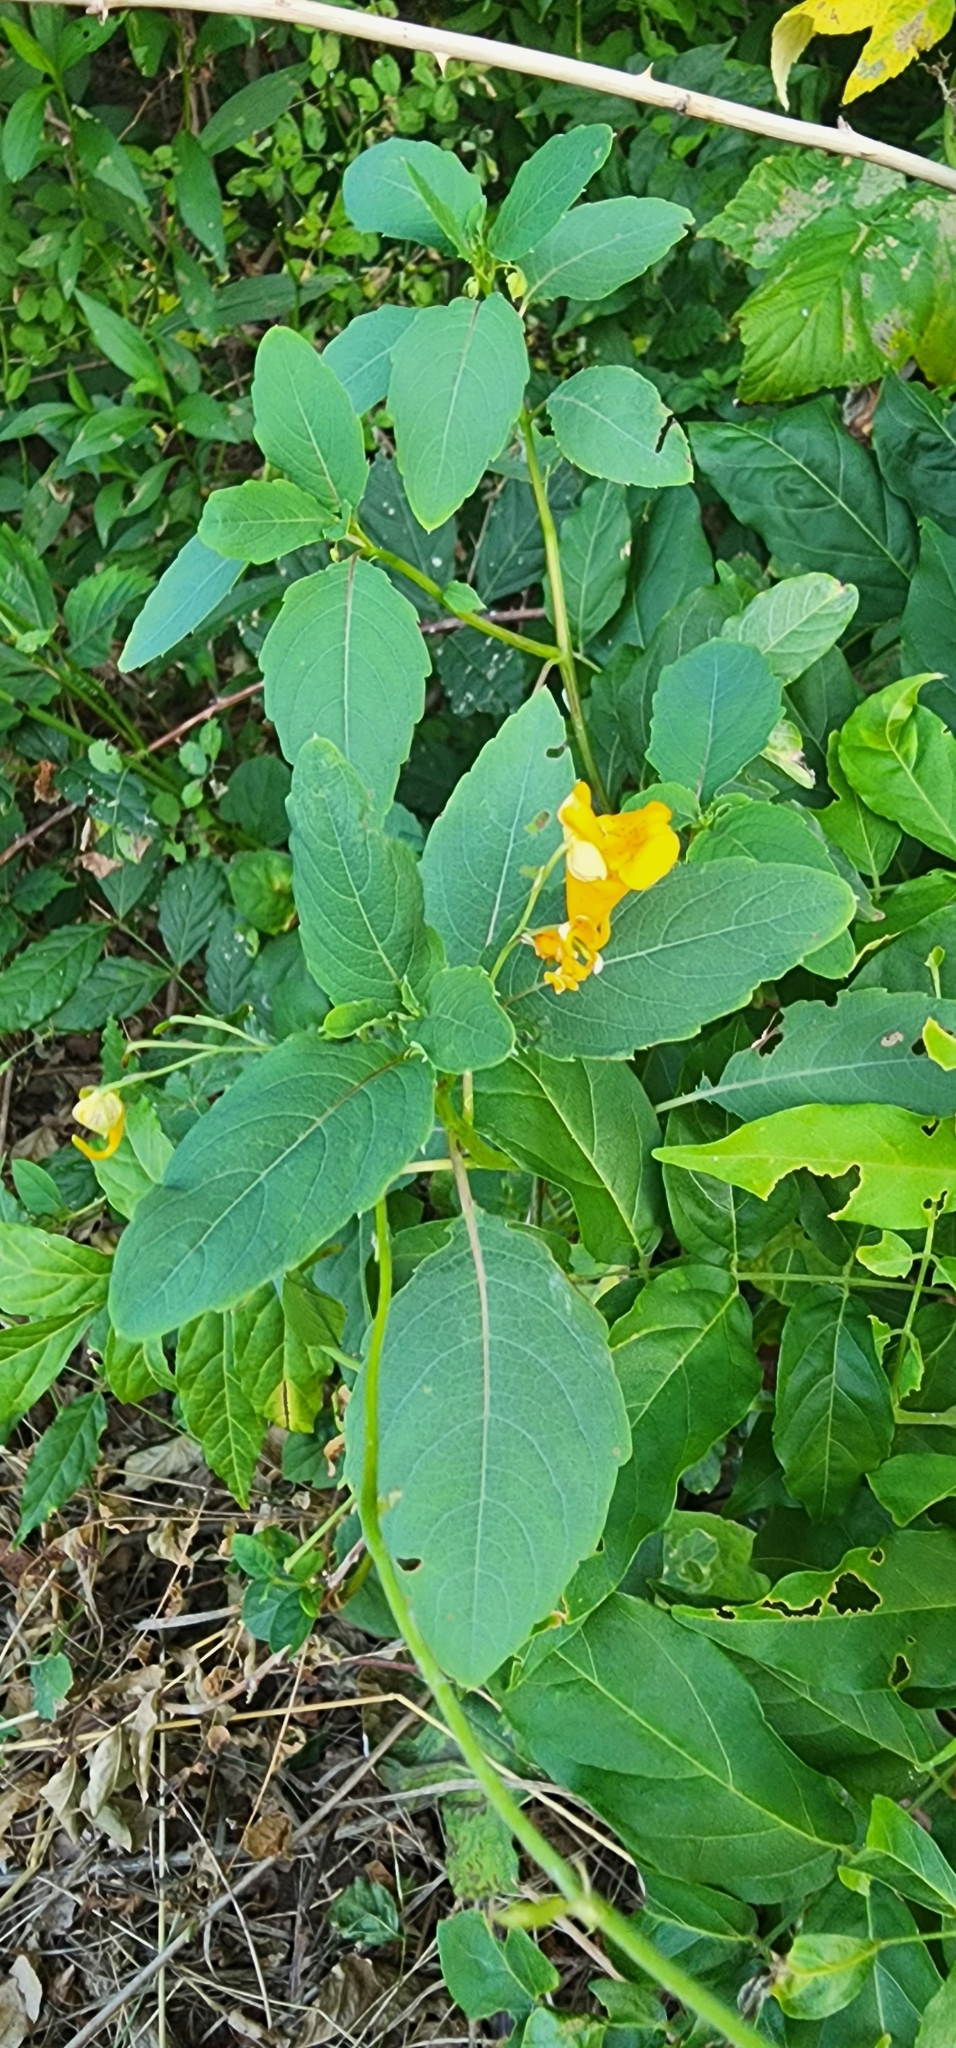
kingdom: Plantae
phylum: Tracheophyta
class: Magnoliopsida
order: Ericales
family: Balsaminaceae
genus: Impatiens
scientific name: Impatiens capensis
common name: Orange balsam
